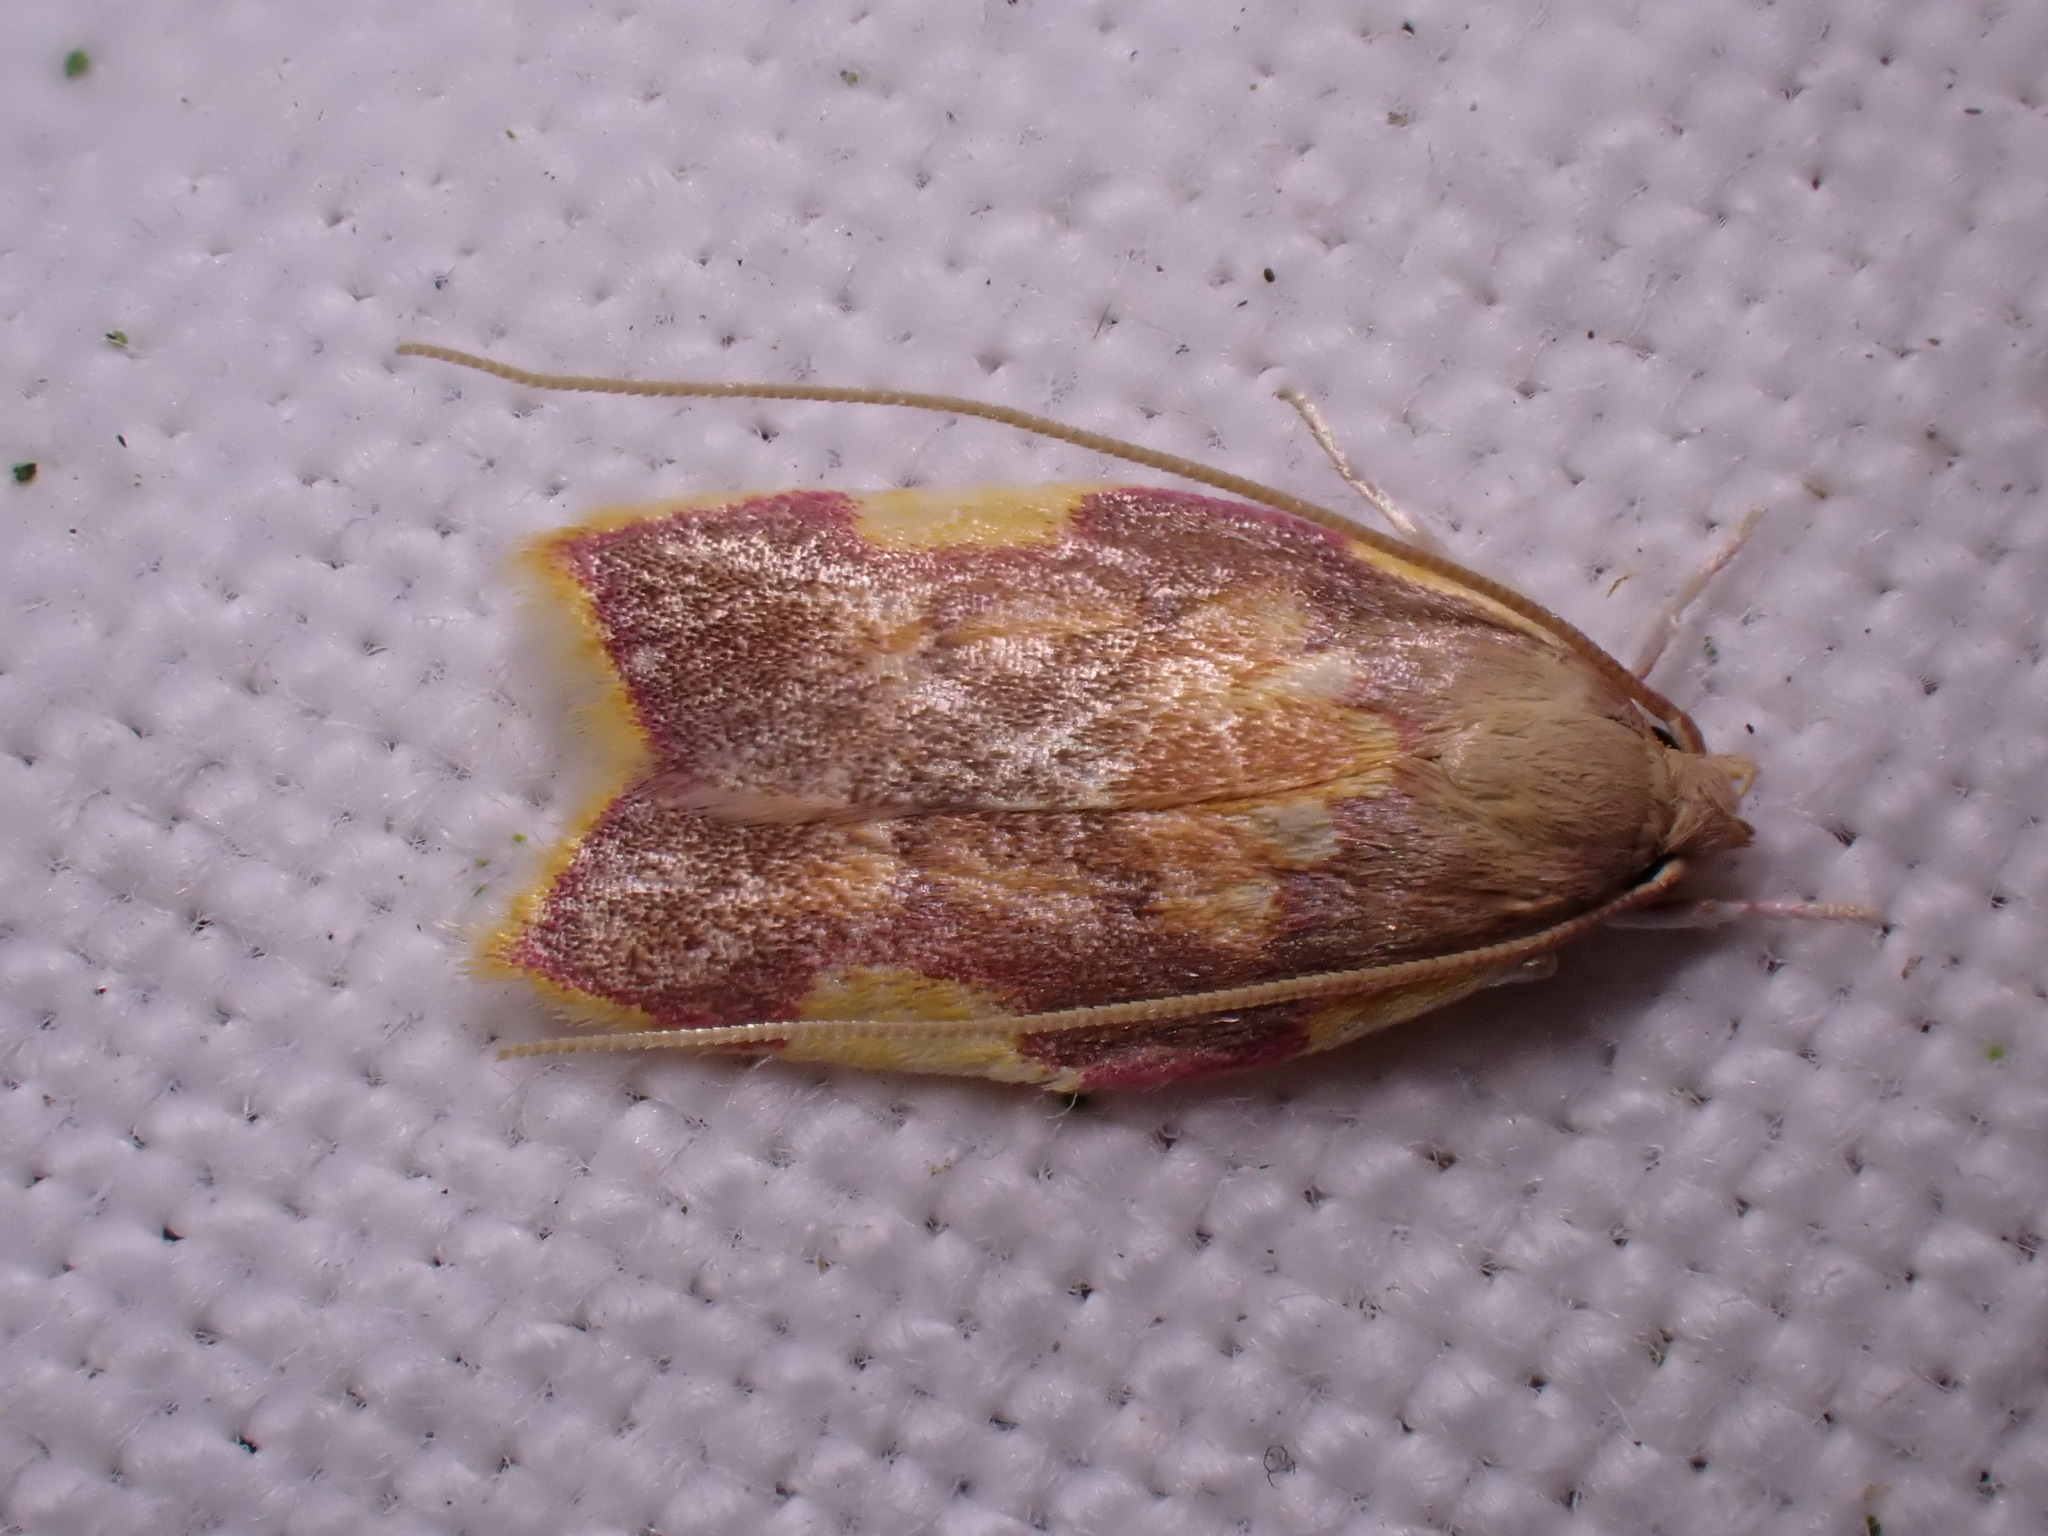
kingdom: Animalia
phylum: Arthropoda
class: Insecta
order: Lepidoptera
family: Peleopodidae
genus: Carcina
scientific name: Carcina quercana
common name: Moth
